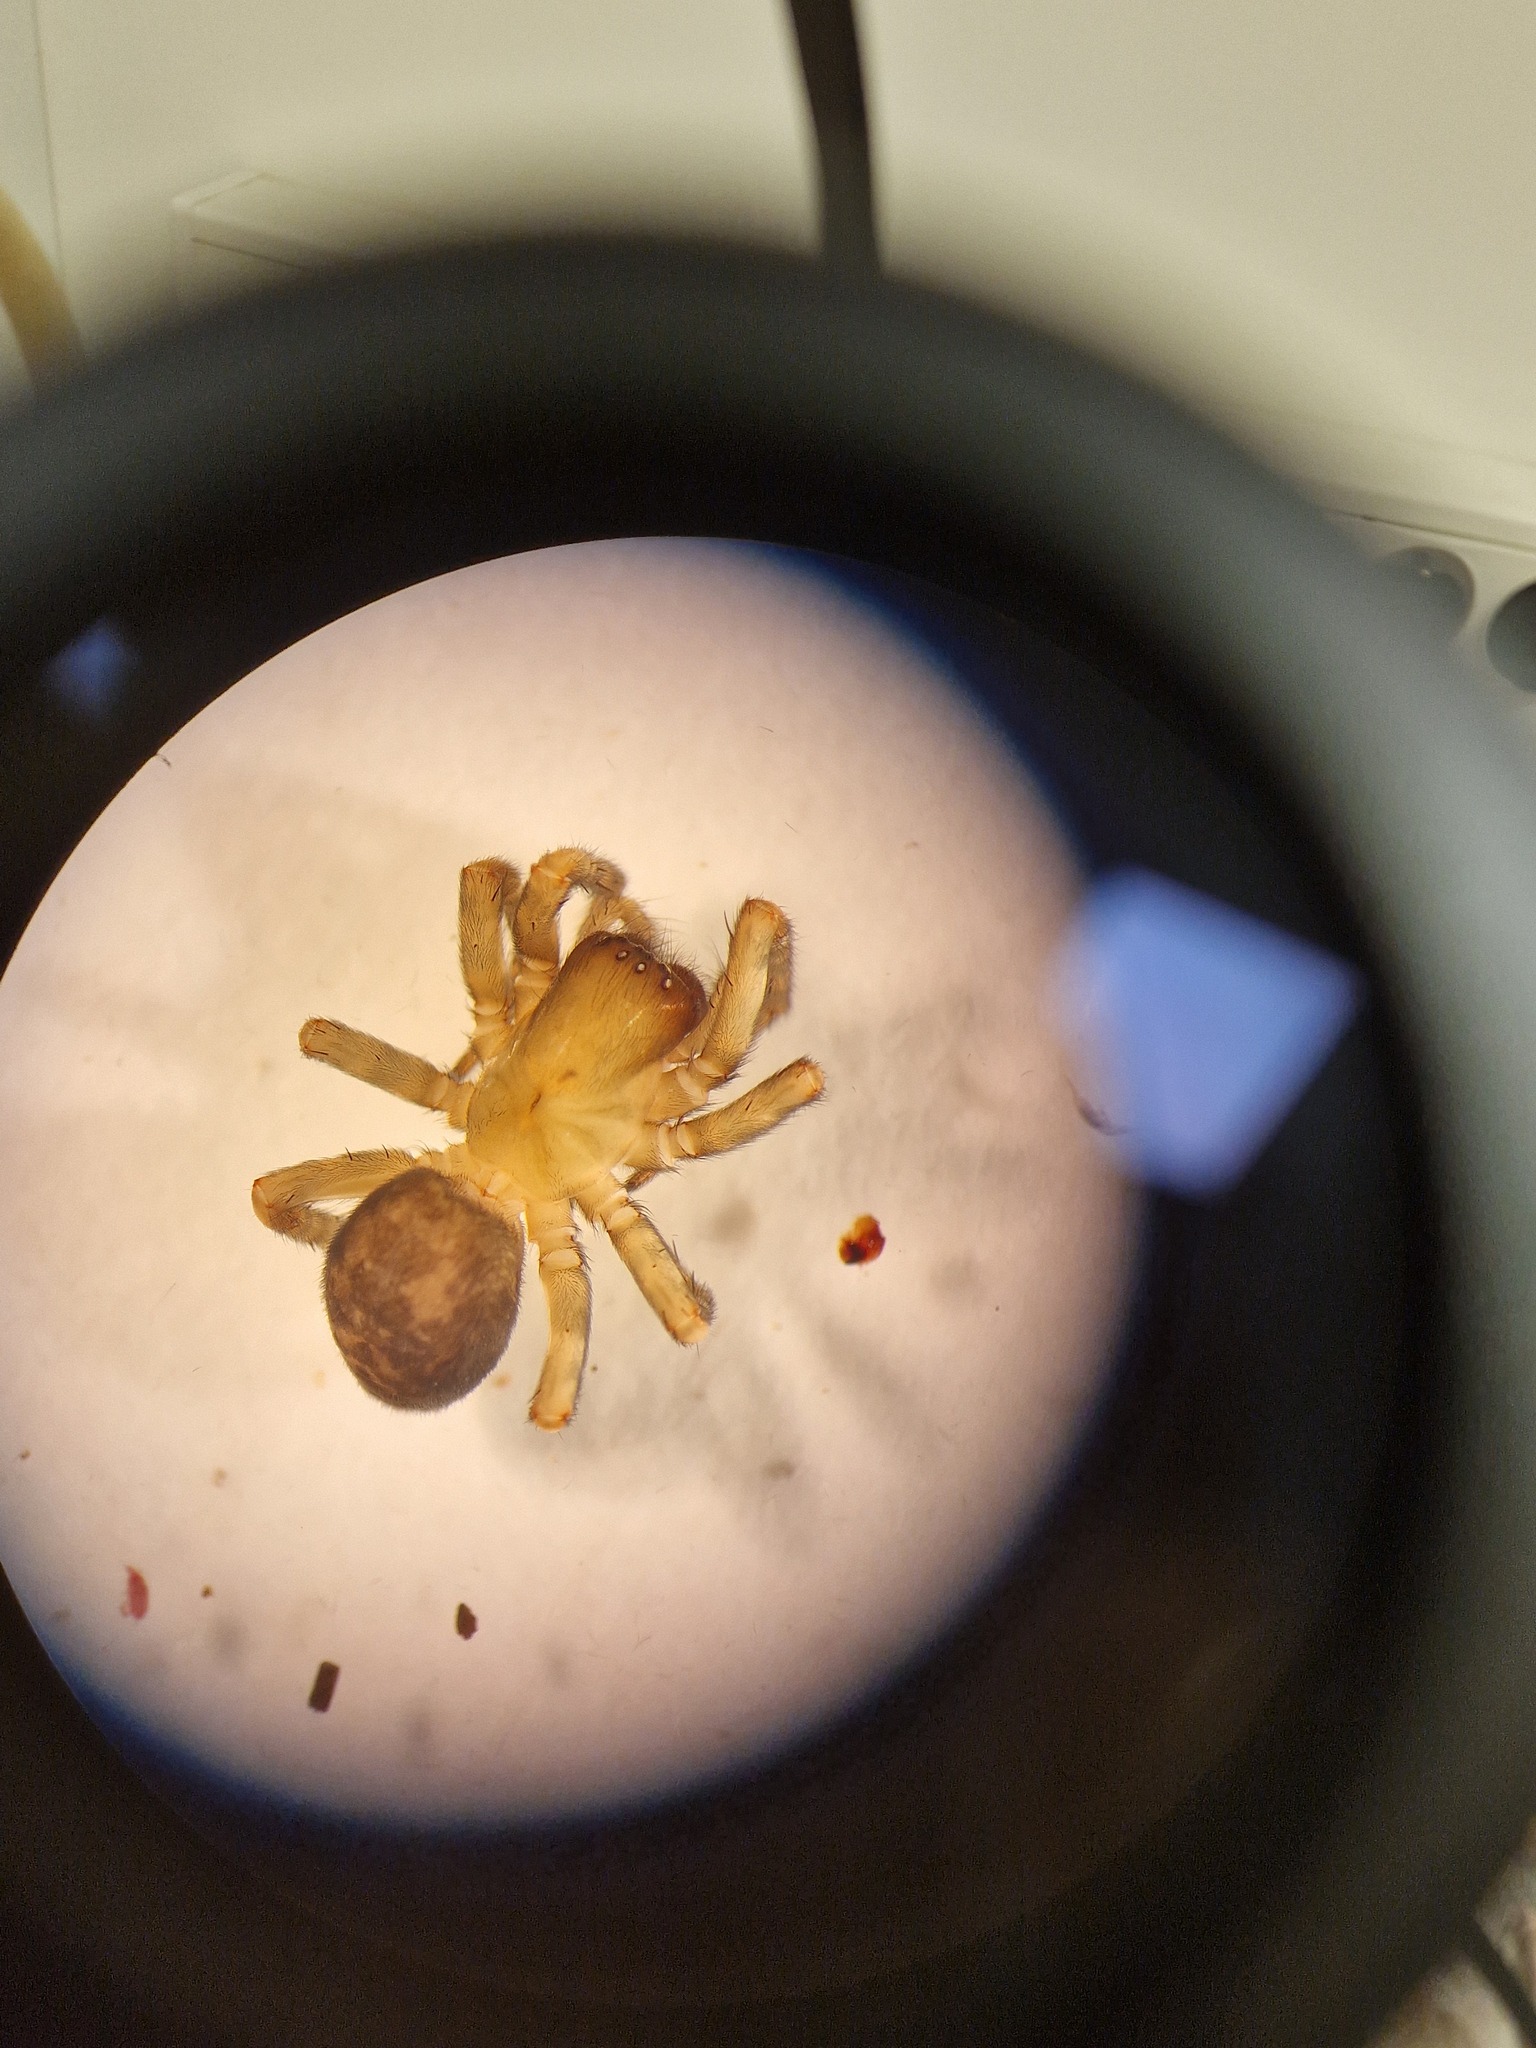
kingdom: Animalia
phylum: Arthropoda
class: Arachnida
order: Araneae
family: Amaurobiidae
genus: Amaurobius
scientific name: Amaurobius erberi
